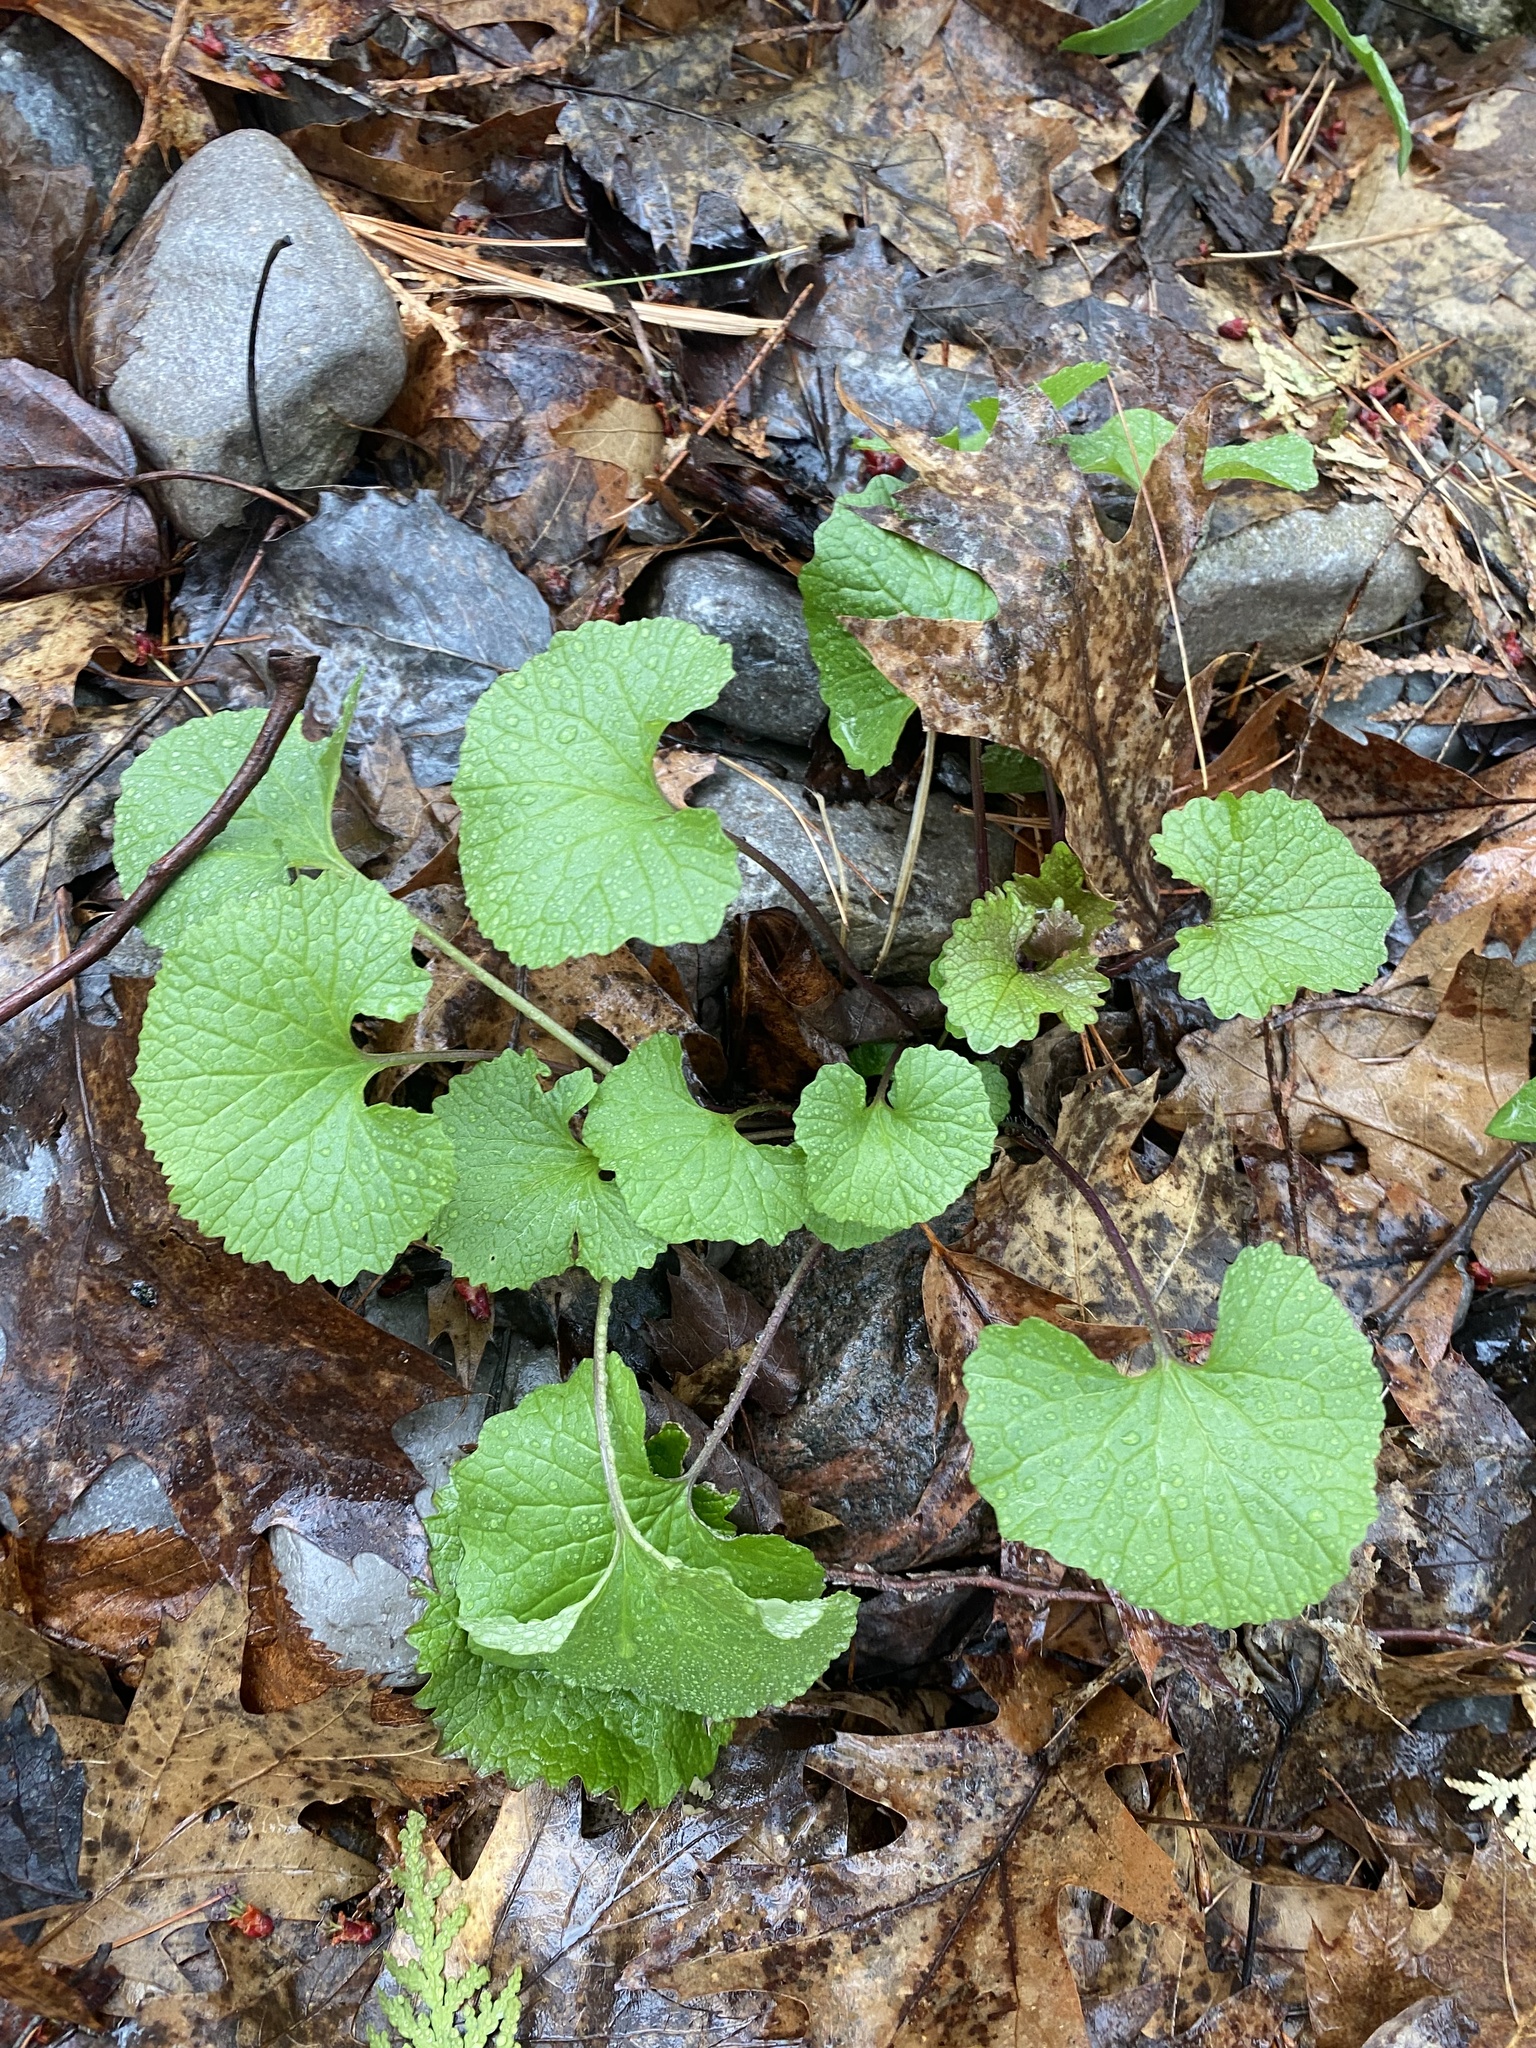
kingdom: Plantae
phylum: Tracheophyta
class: Magnoliopsida
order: Brassicales
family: Brassicaceae
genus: Alliaria
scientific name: Alliaria petiolata
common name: Garlic mustard
